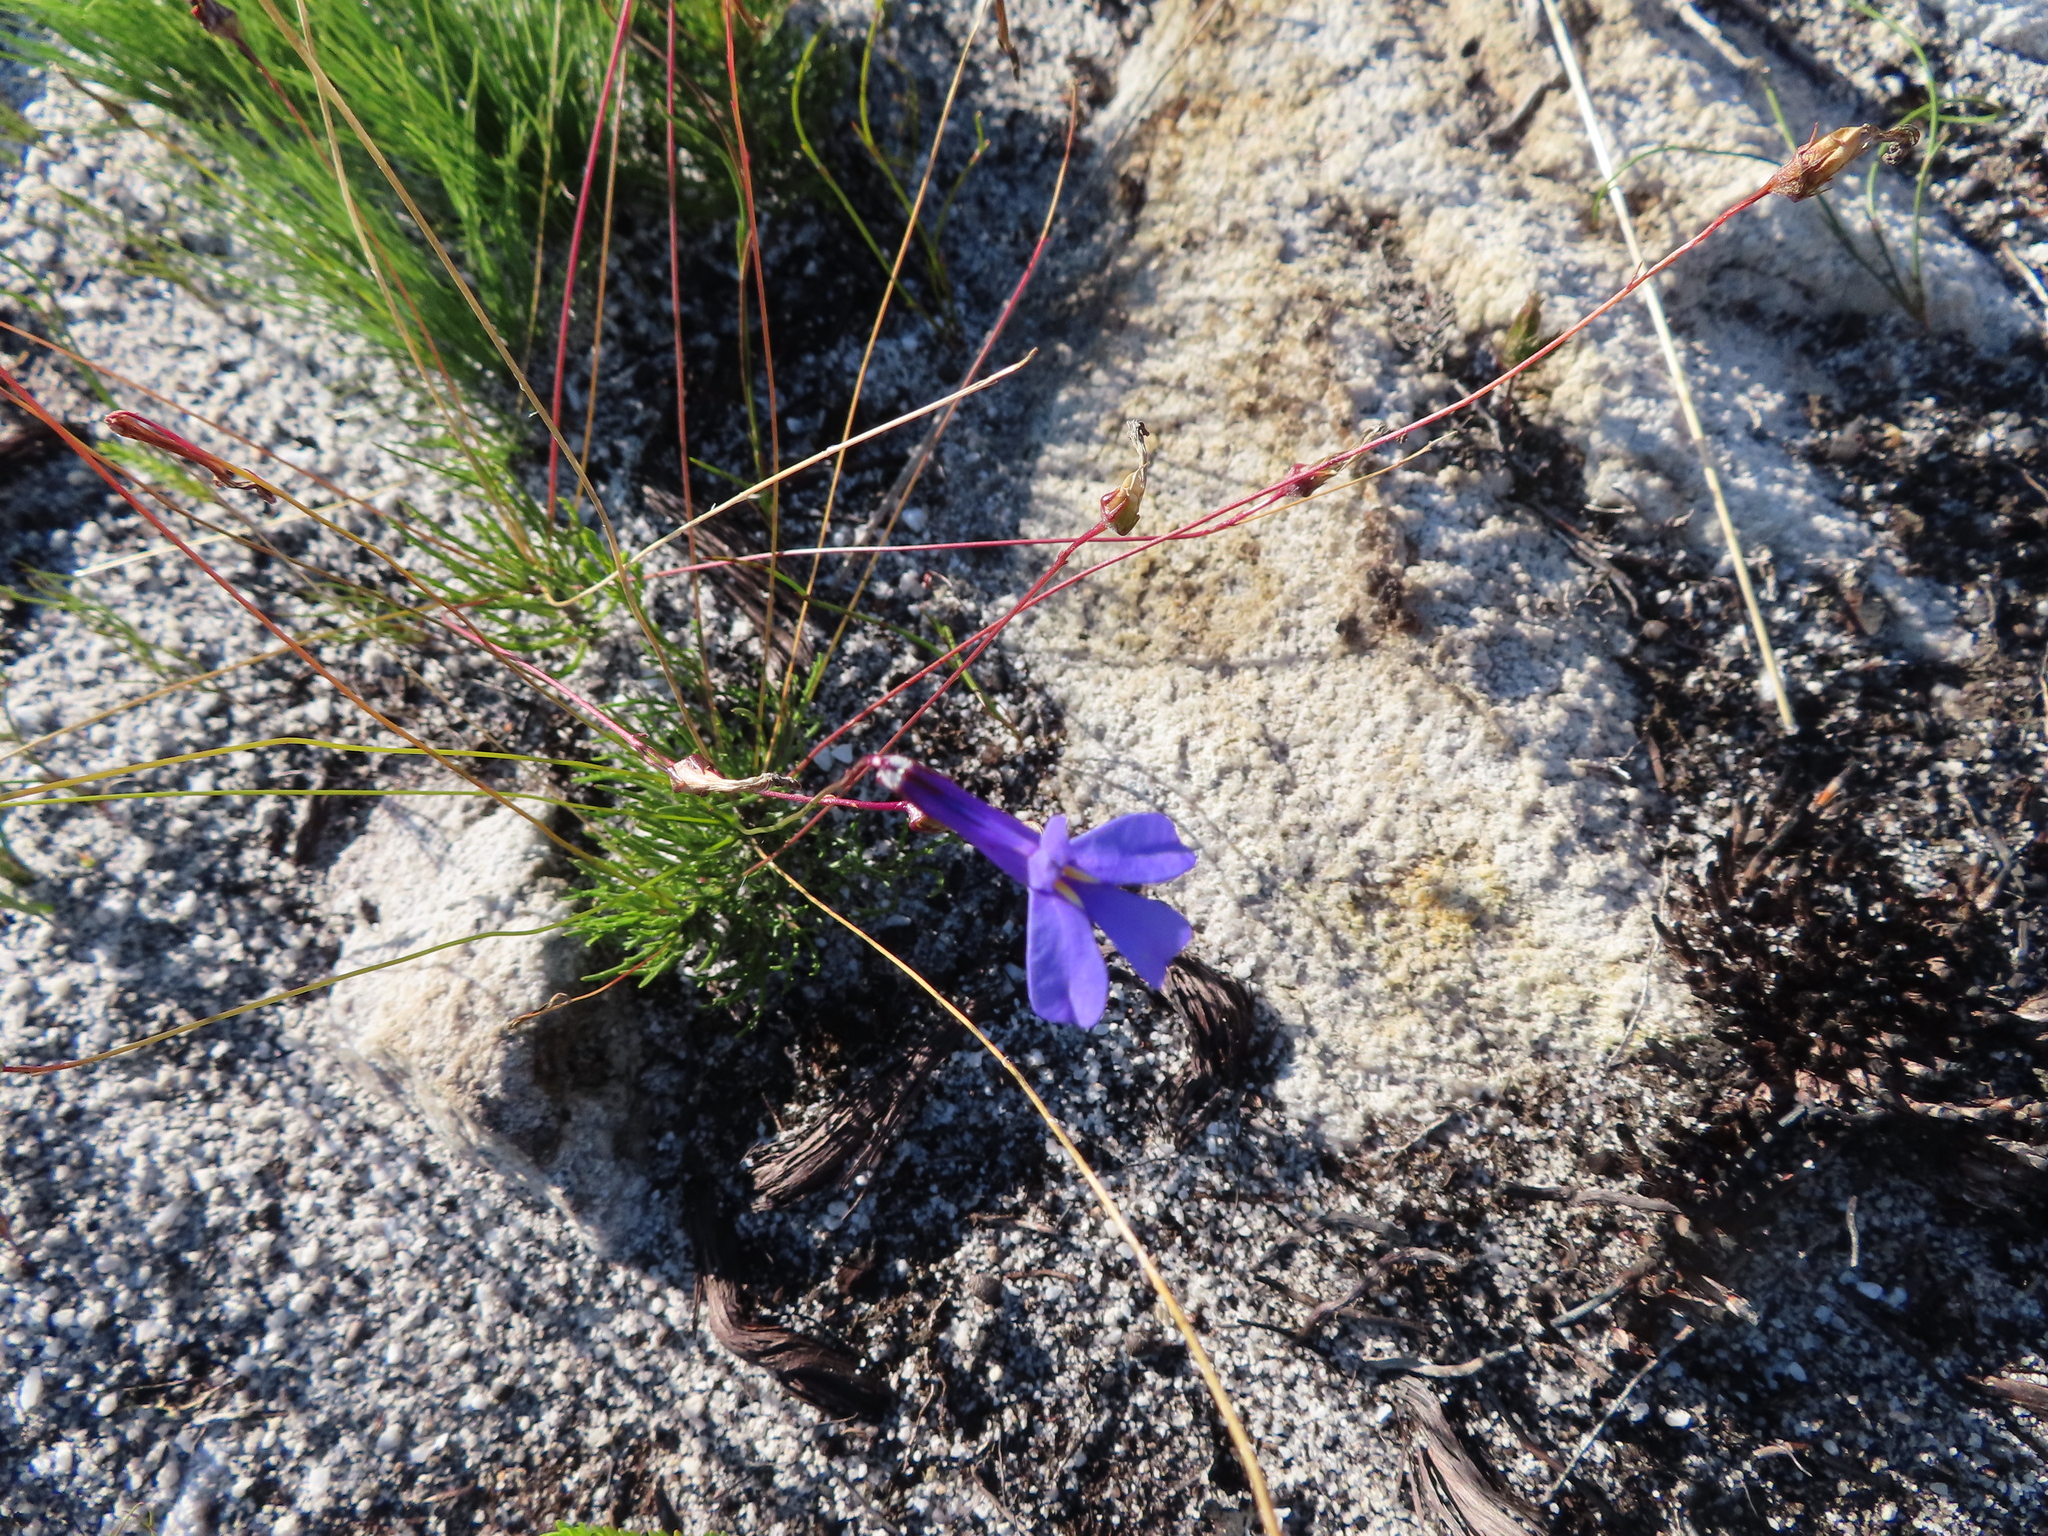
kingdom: Plantae
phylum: Tracheophyta
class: Magnoliopsida
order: Asterales
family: Campanulaceae
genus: Lobelia
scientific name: Lobelia coronopifolia
